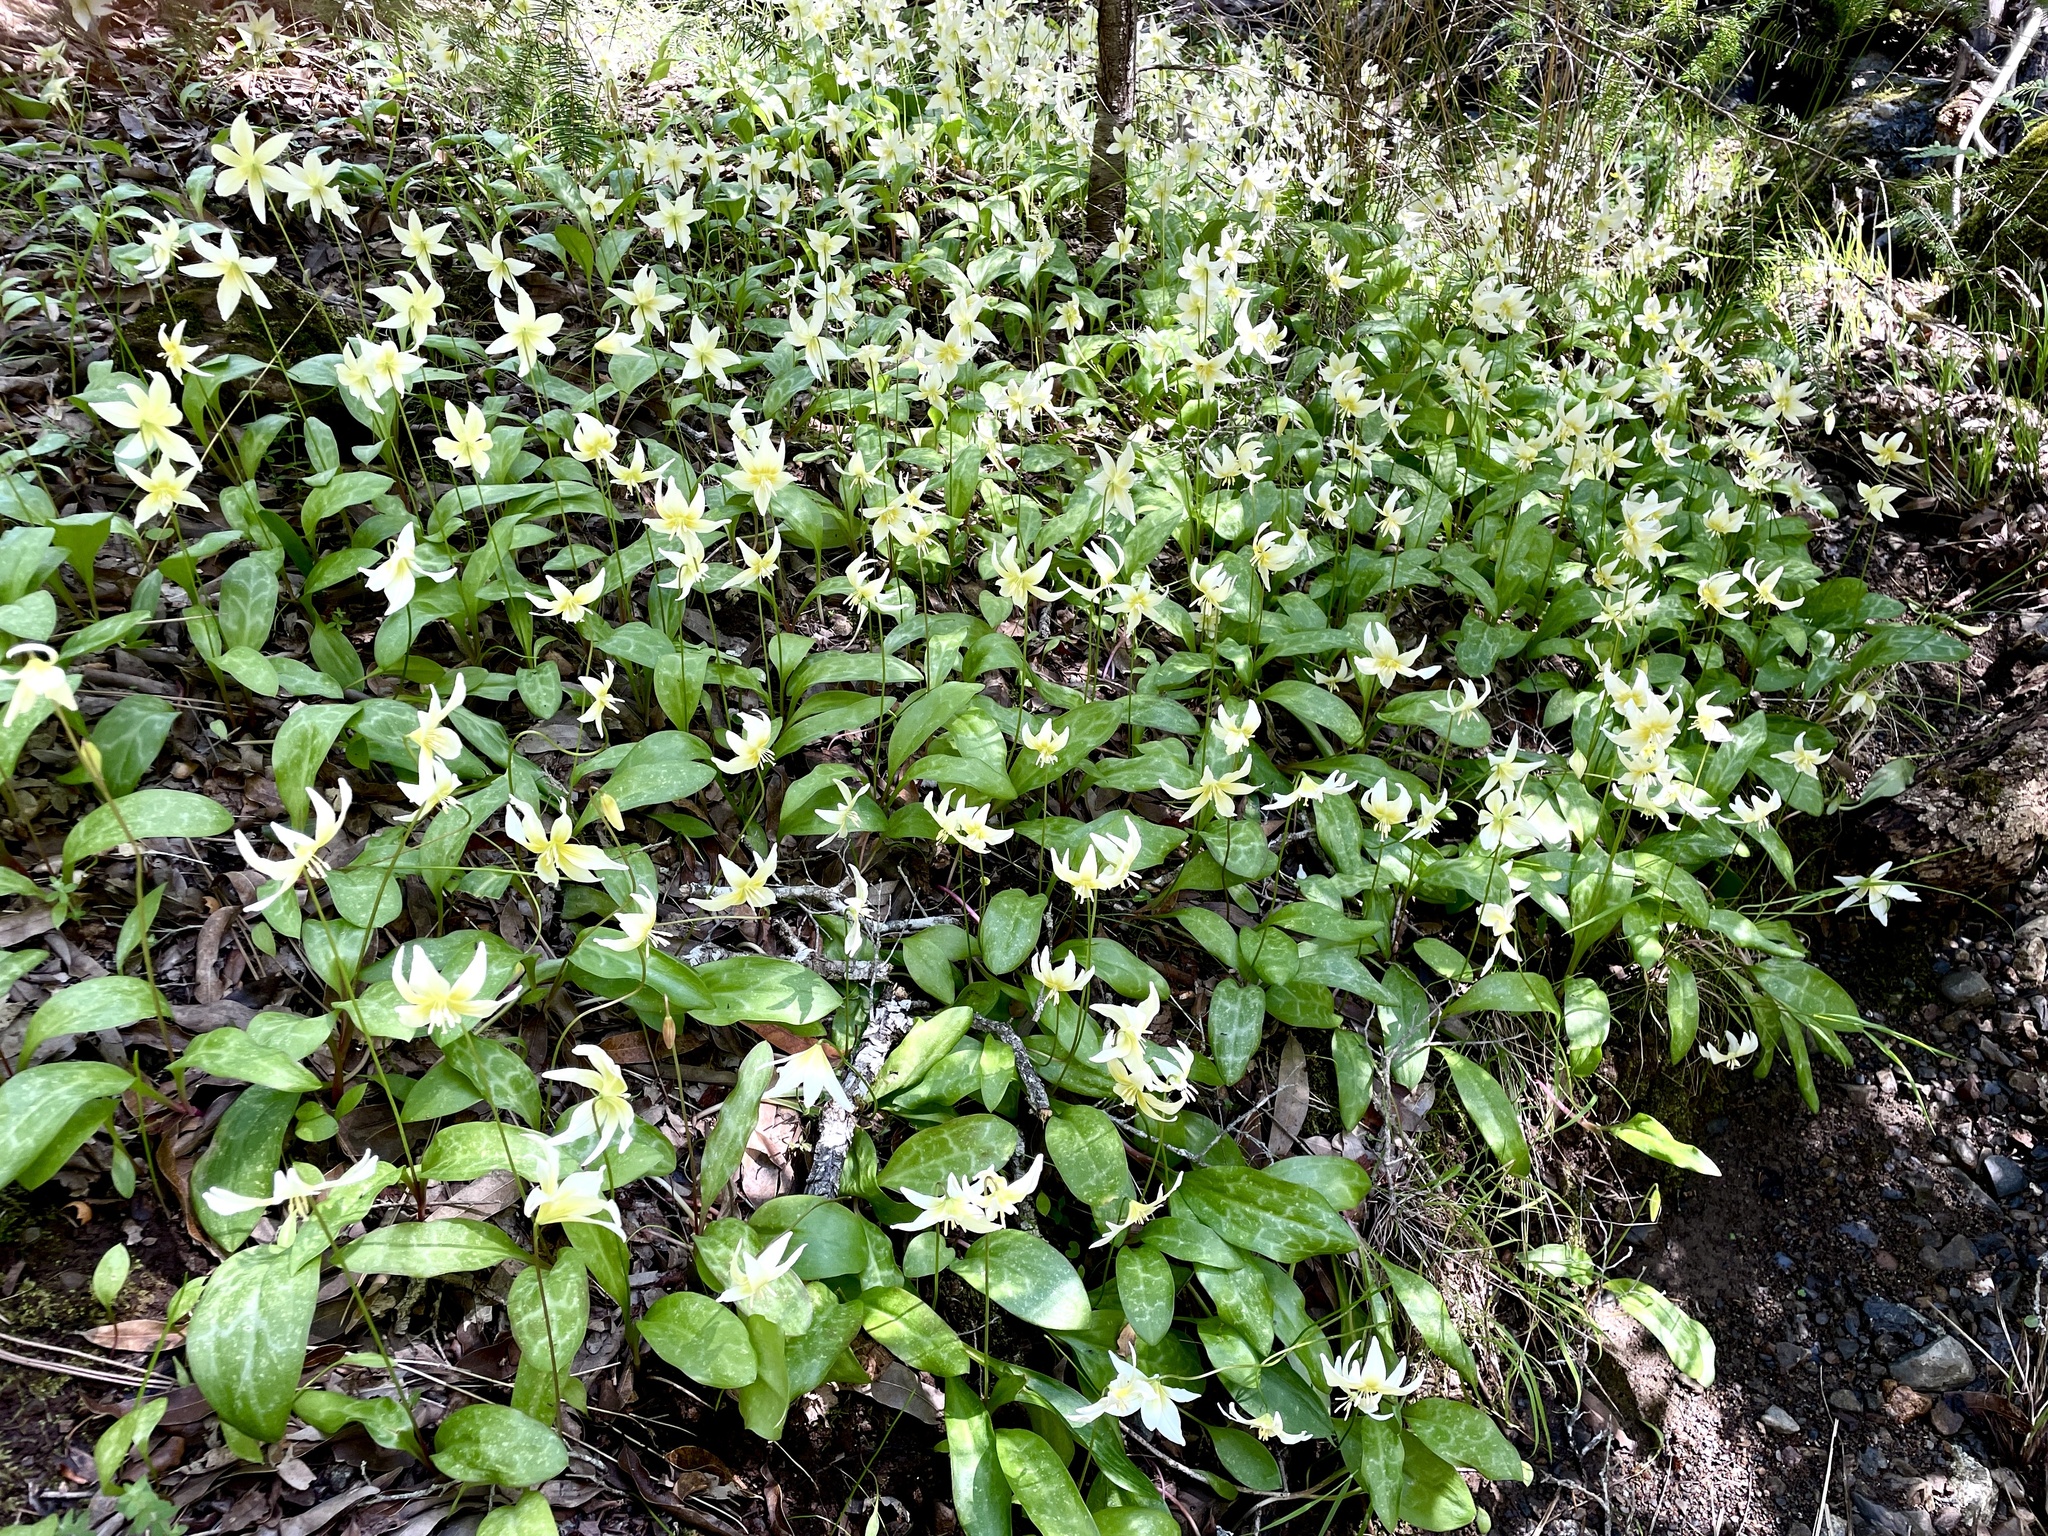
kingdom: Plantae
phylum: Tracheophyta
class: Liliopsida
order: Liliales
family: Liliaceae
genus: Erythronium
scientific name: Erythronium californicum
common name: Fawn-lily
